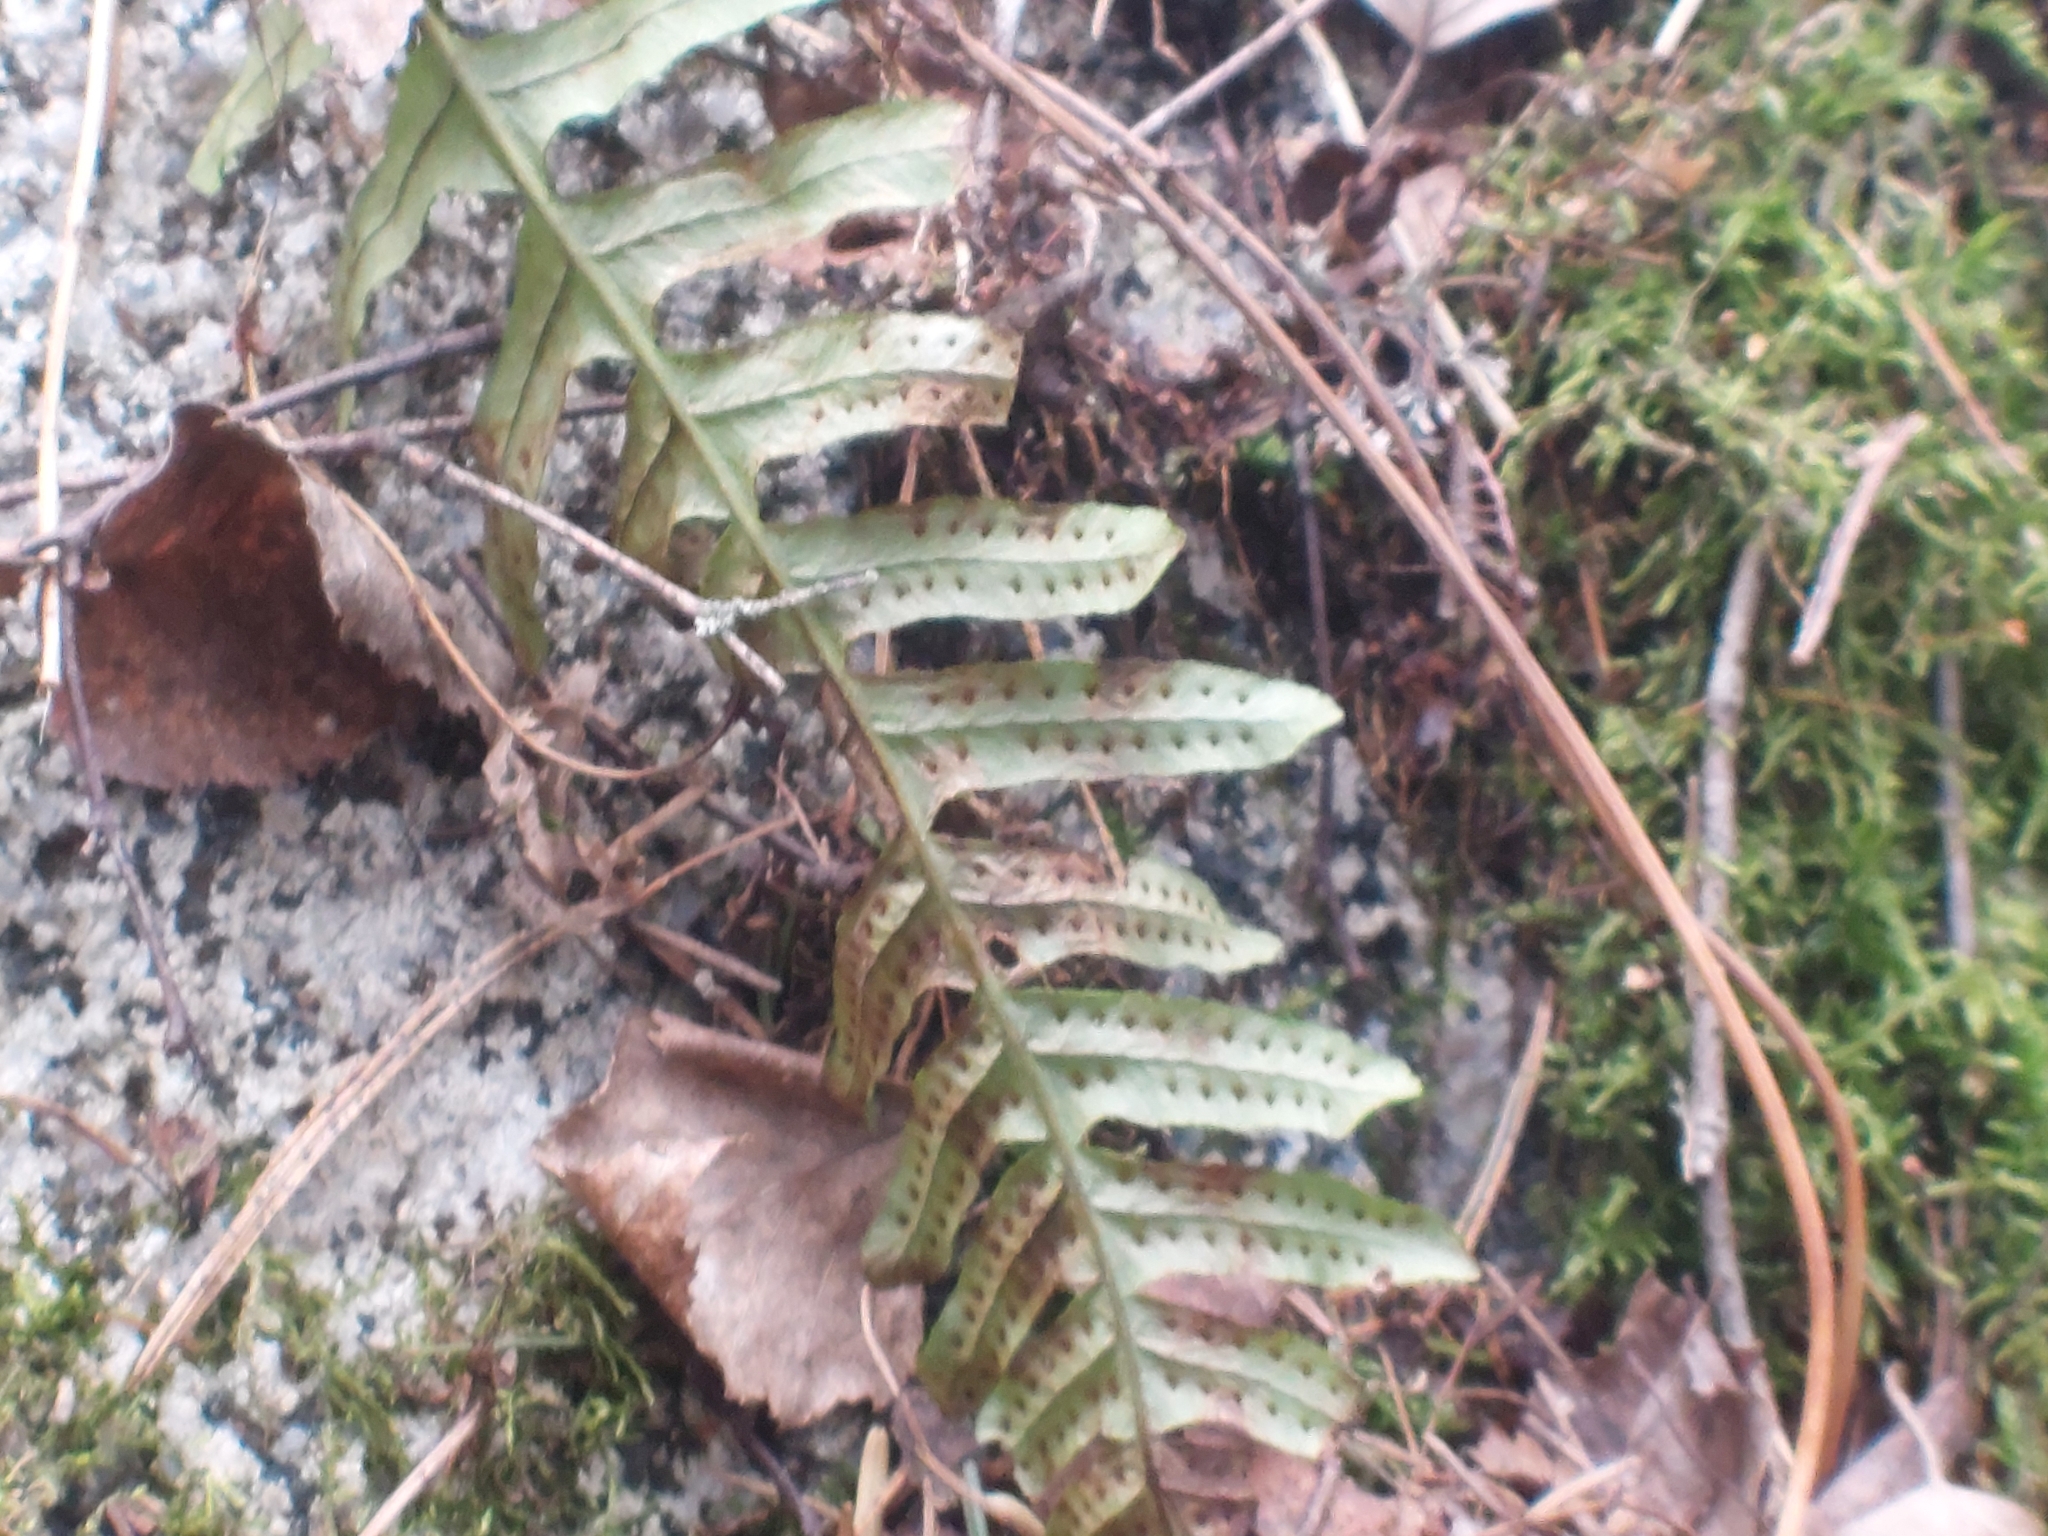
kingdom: Plantae
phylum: Tracheophyta
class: Polypodiopsida
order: Polypodiales
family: Polypodiaceae
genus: Polypodium
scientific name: Polypodium vulgare
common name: Common polypody
